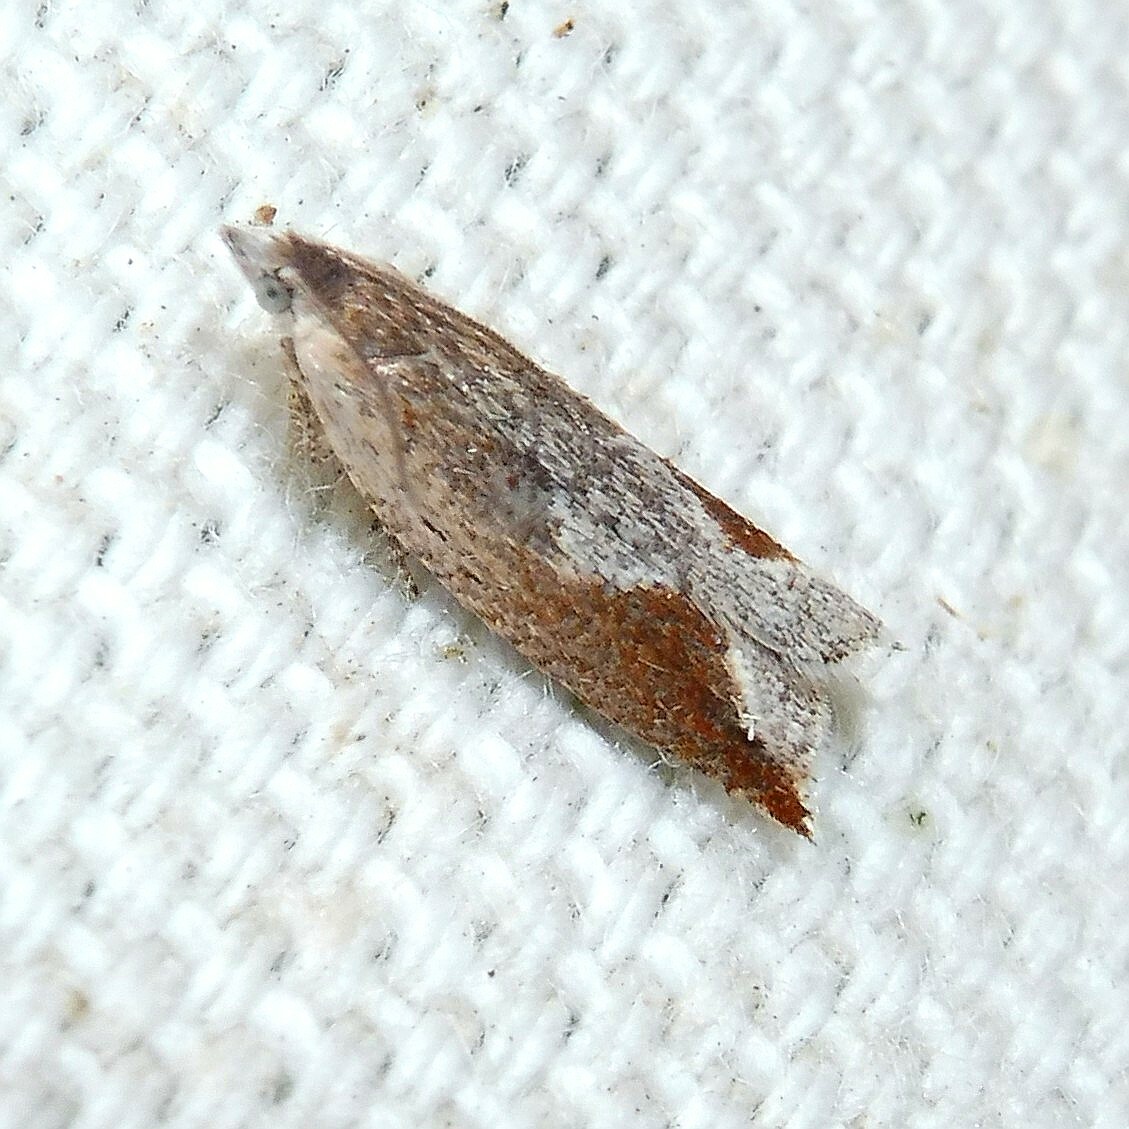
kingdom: Animalia
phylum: Arthropoda
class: Insecta
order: Lepidoptera
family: Tortricidae
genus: Ancylis
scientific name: Ancylis diminutana
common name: Small festooned roller
